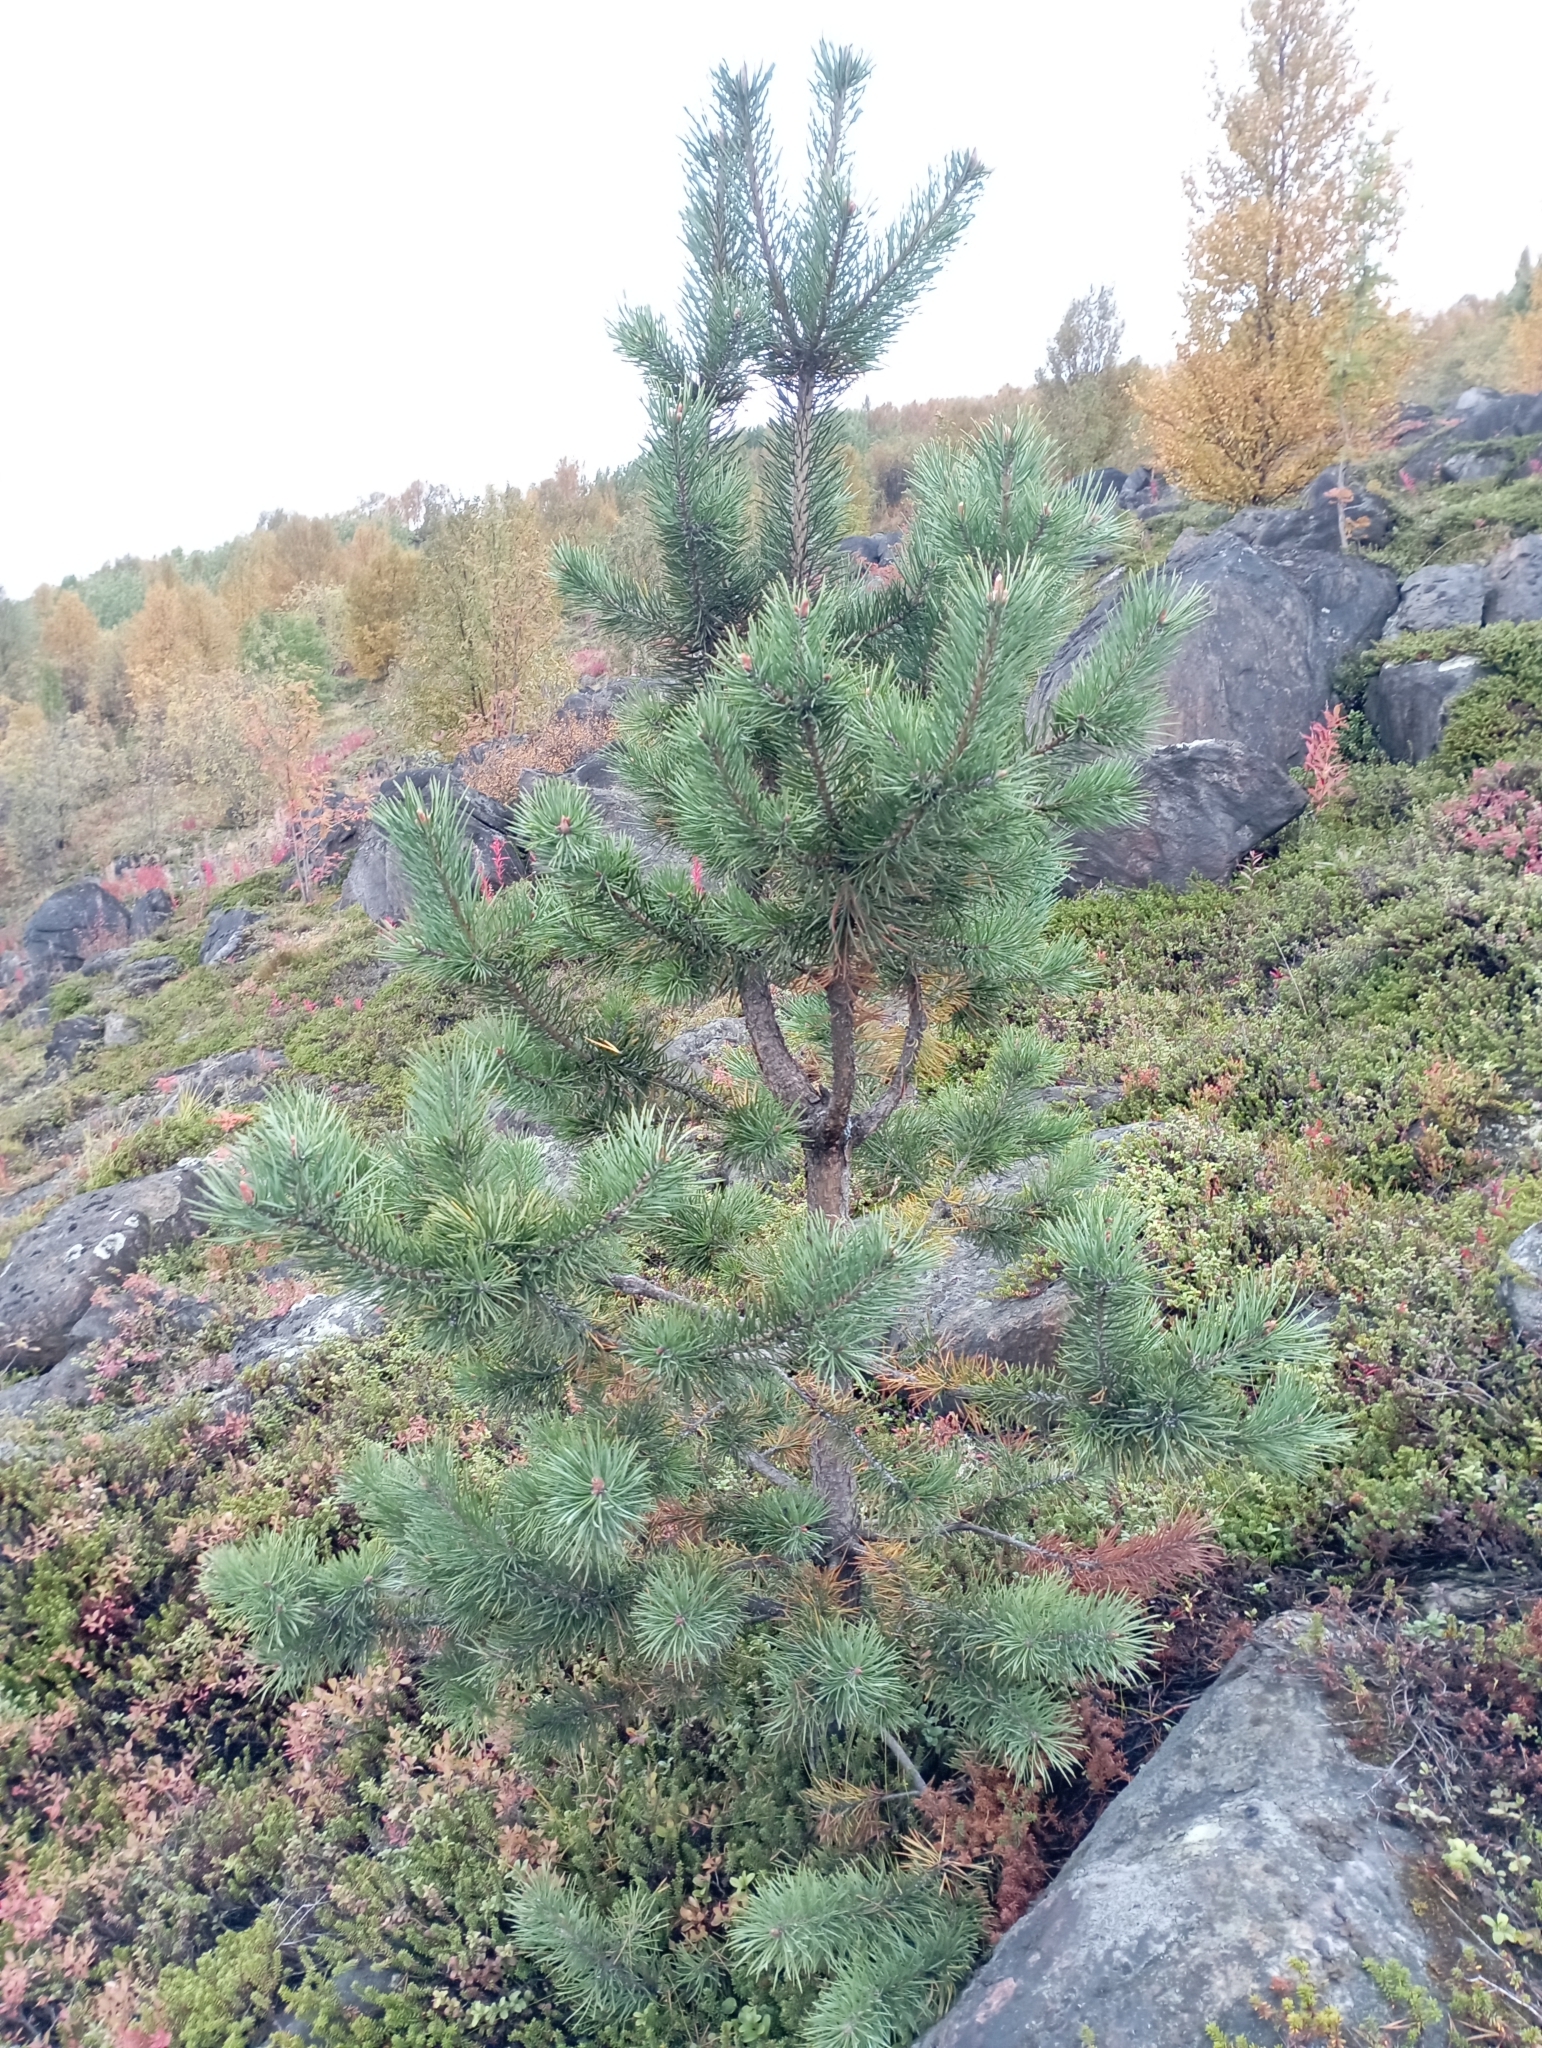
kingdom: Plantae
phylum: Tracheophyta
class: Pinopsida
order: Pinales
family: Pinaceae
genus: Pinus
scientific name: Pinus sylvestris
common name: Scots pine
